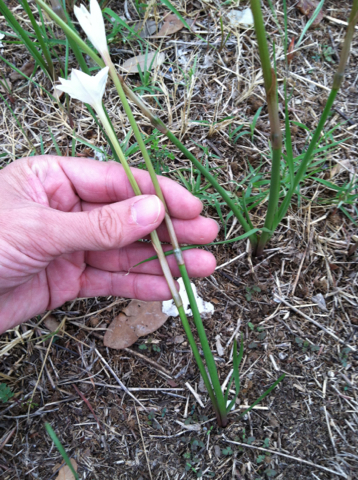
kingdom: Plantae
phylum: Tracheophyta
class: Liliopsida
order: Asparagales
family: Amaryllidaceae
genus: Zephyranthes
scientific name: Zephyranthes chlorosolen
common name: Evening rain-lily
